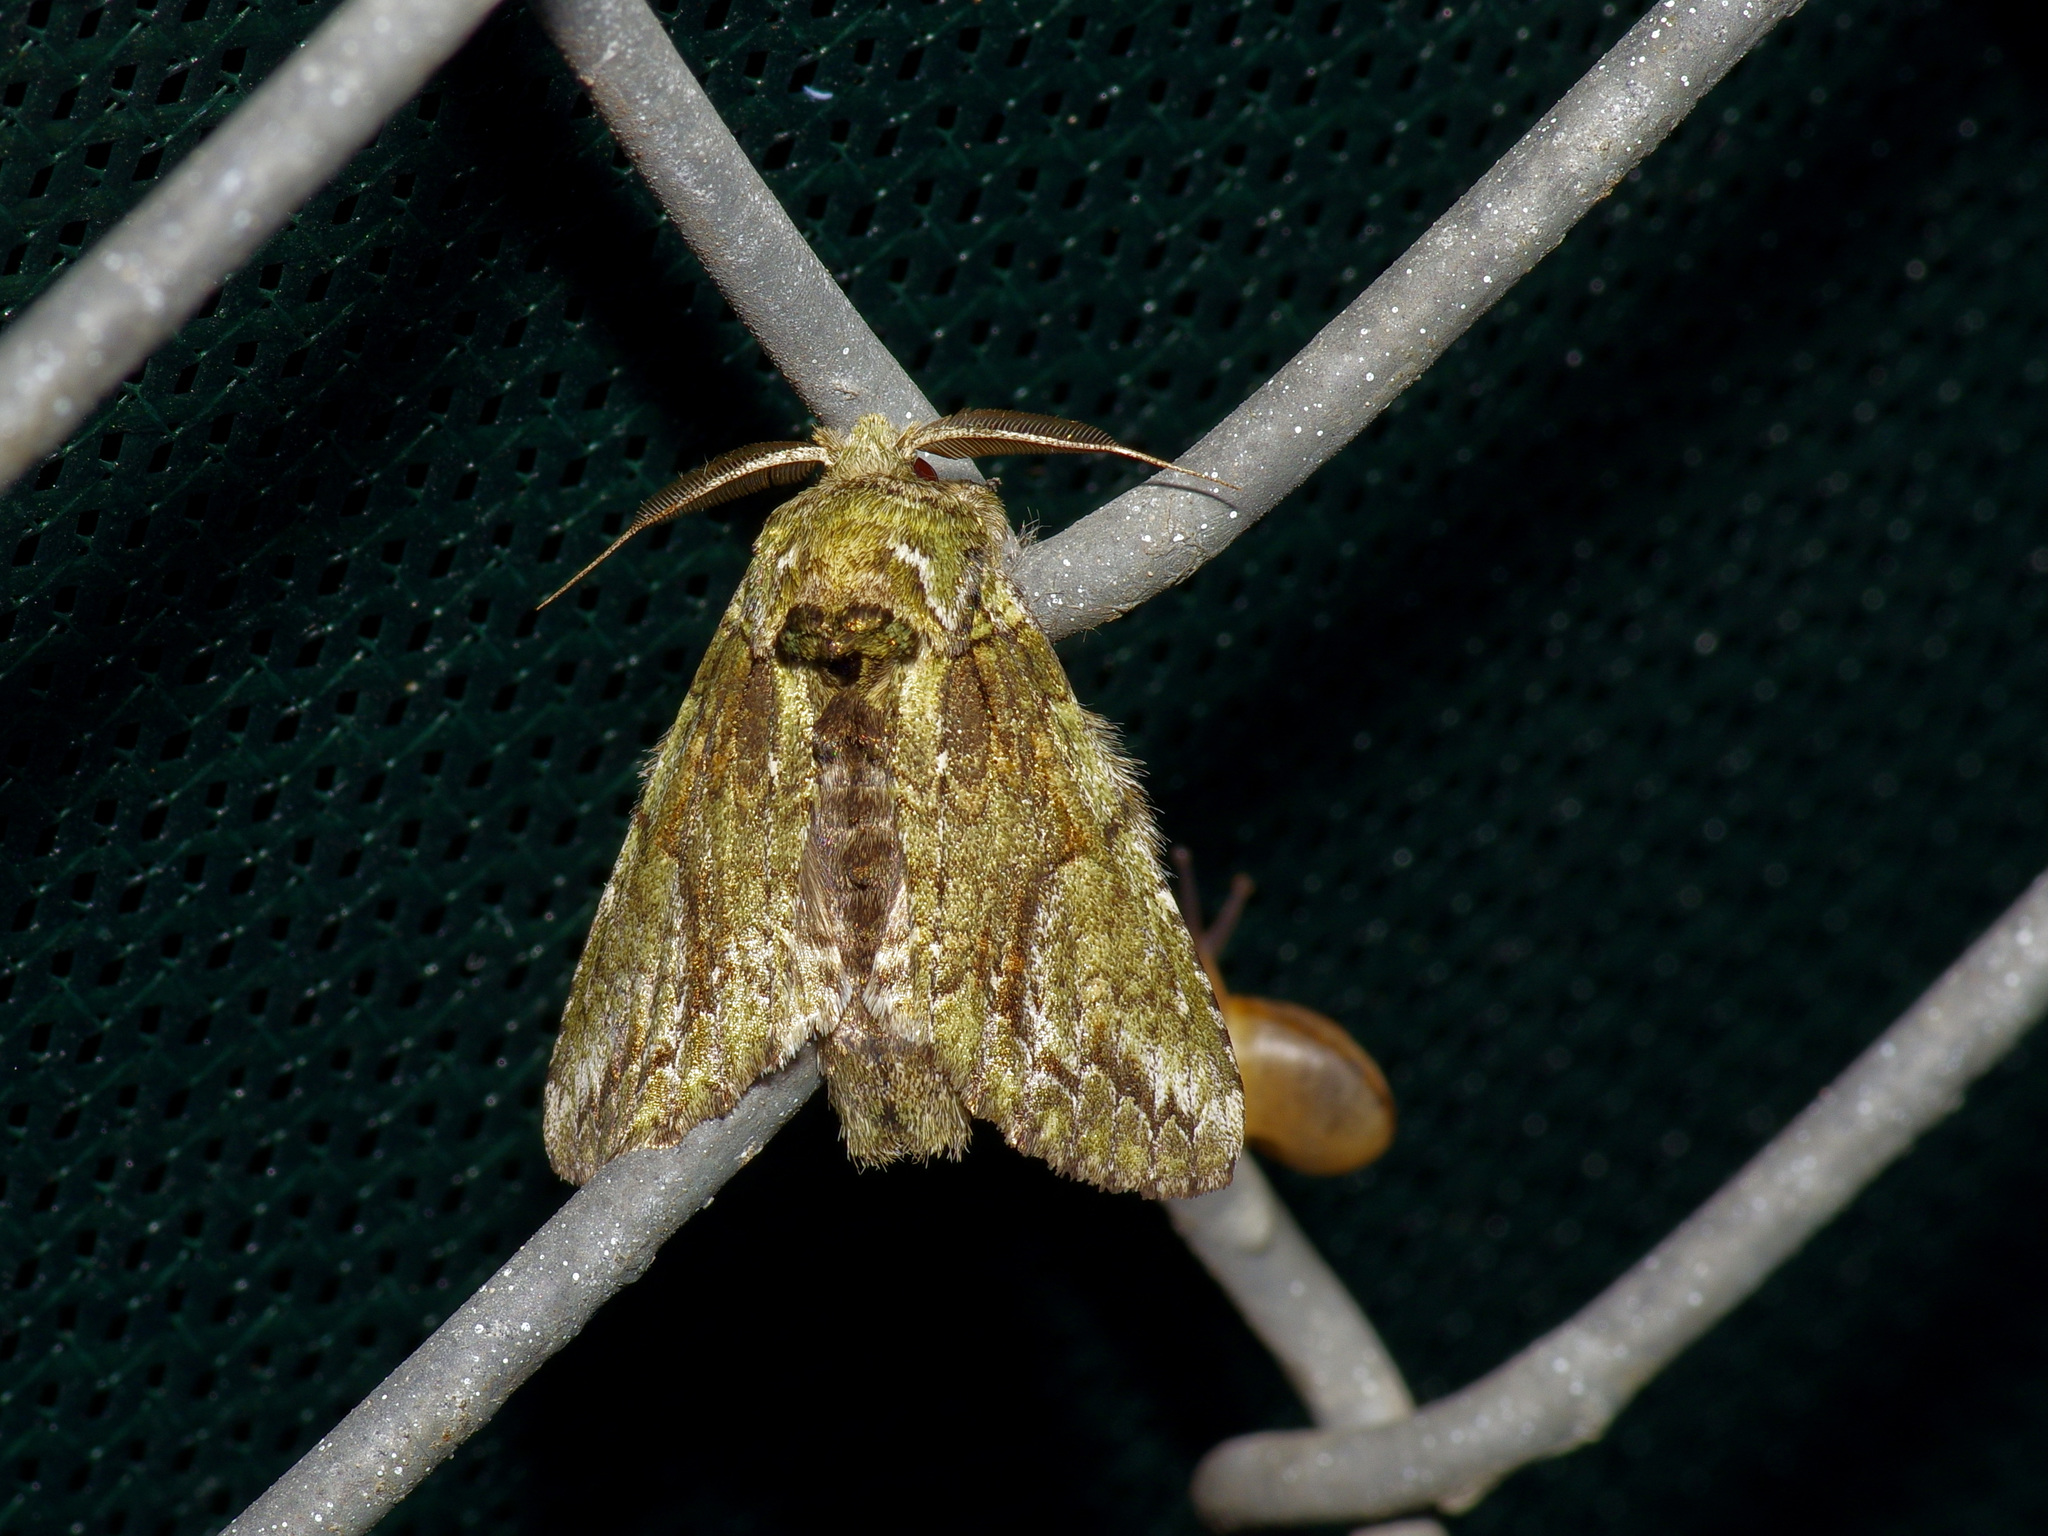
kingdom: Animalia
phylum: Arthropoda
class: Insecta
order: Lepidoptera
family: Notodontidae
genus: Heterocampa
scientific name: Heterocampa
